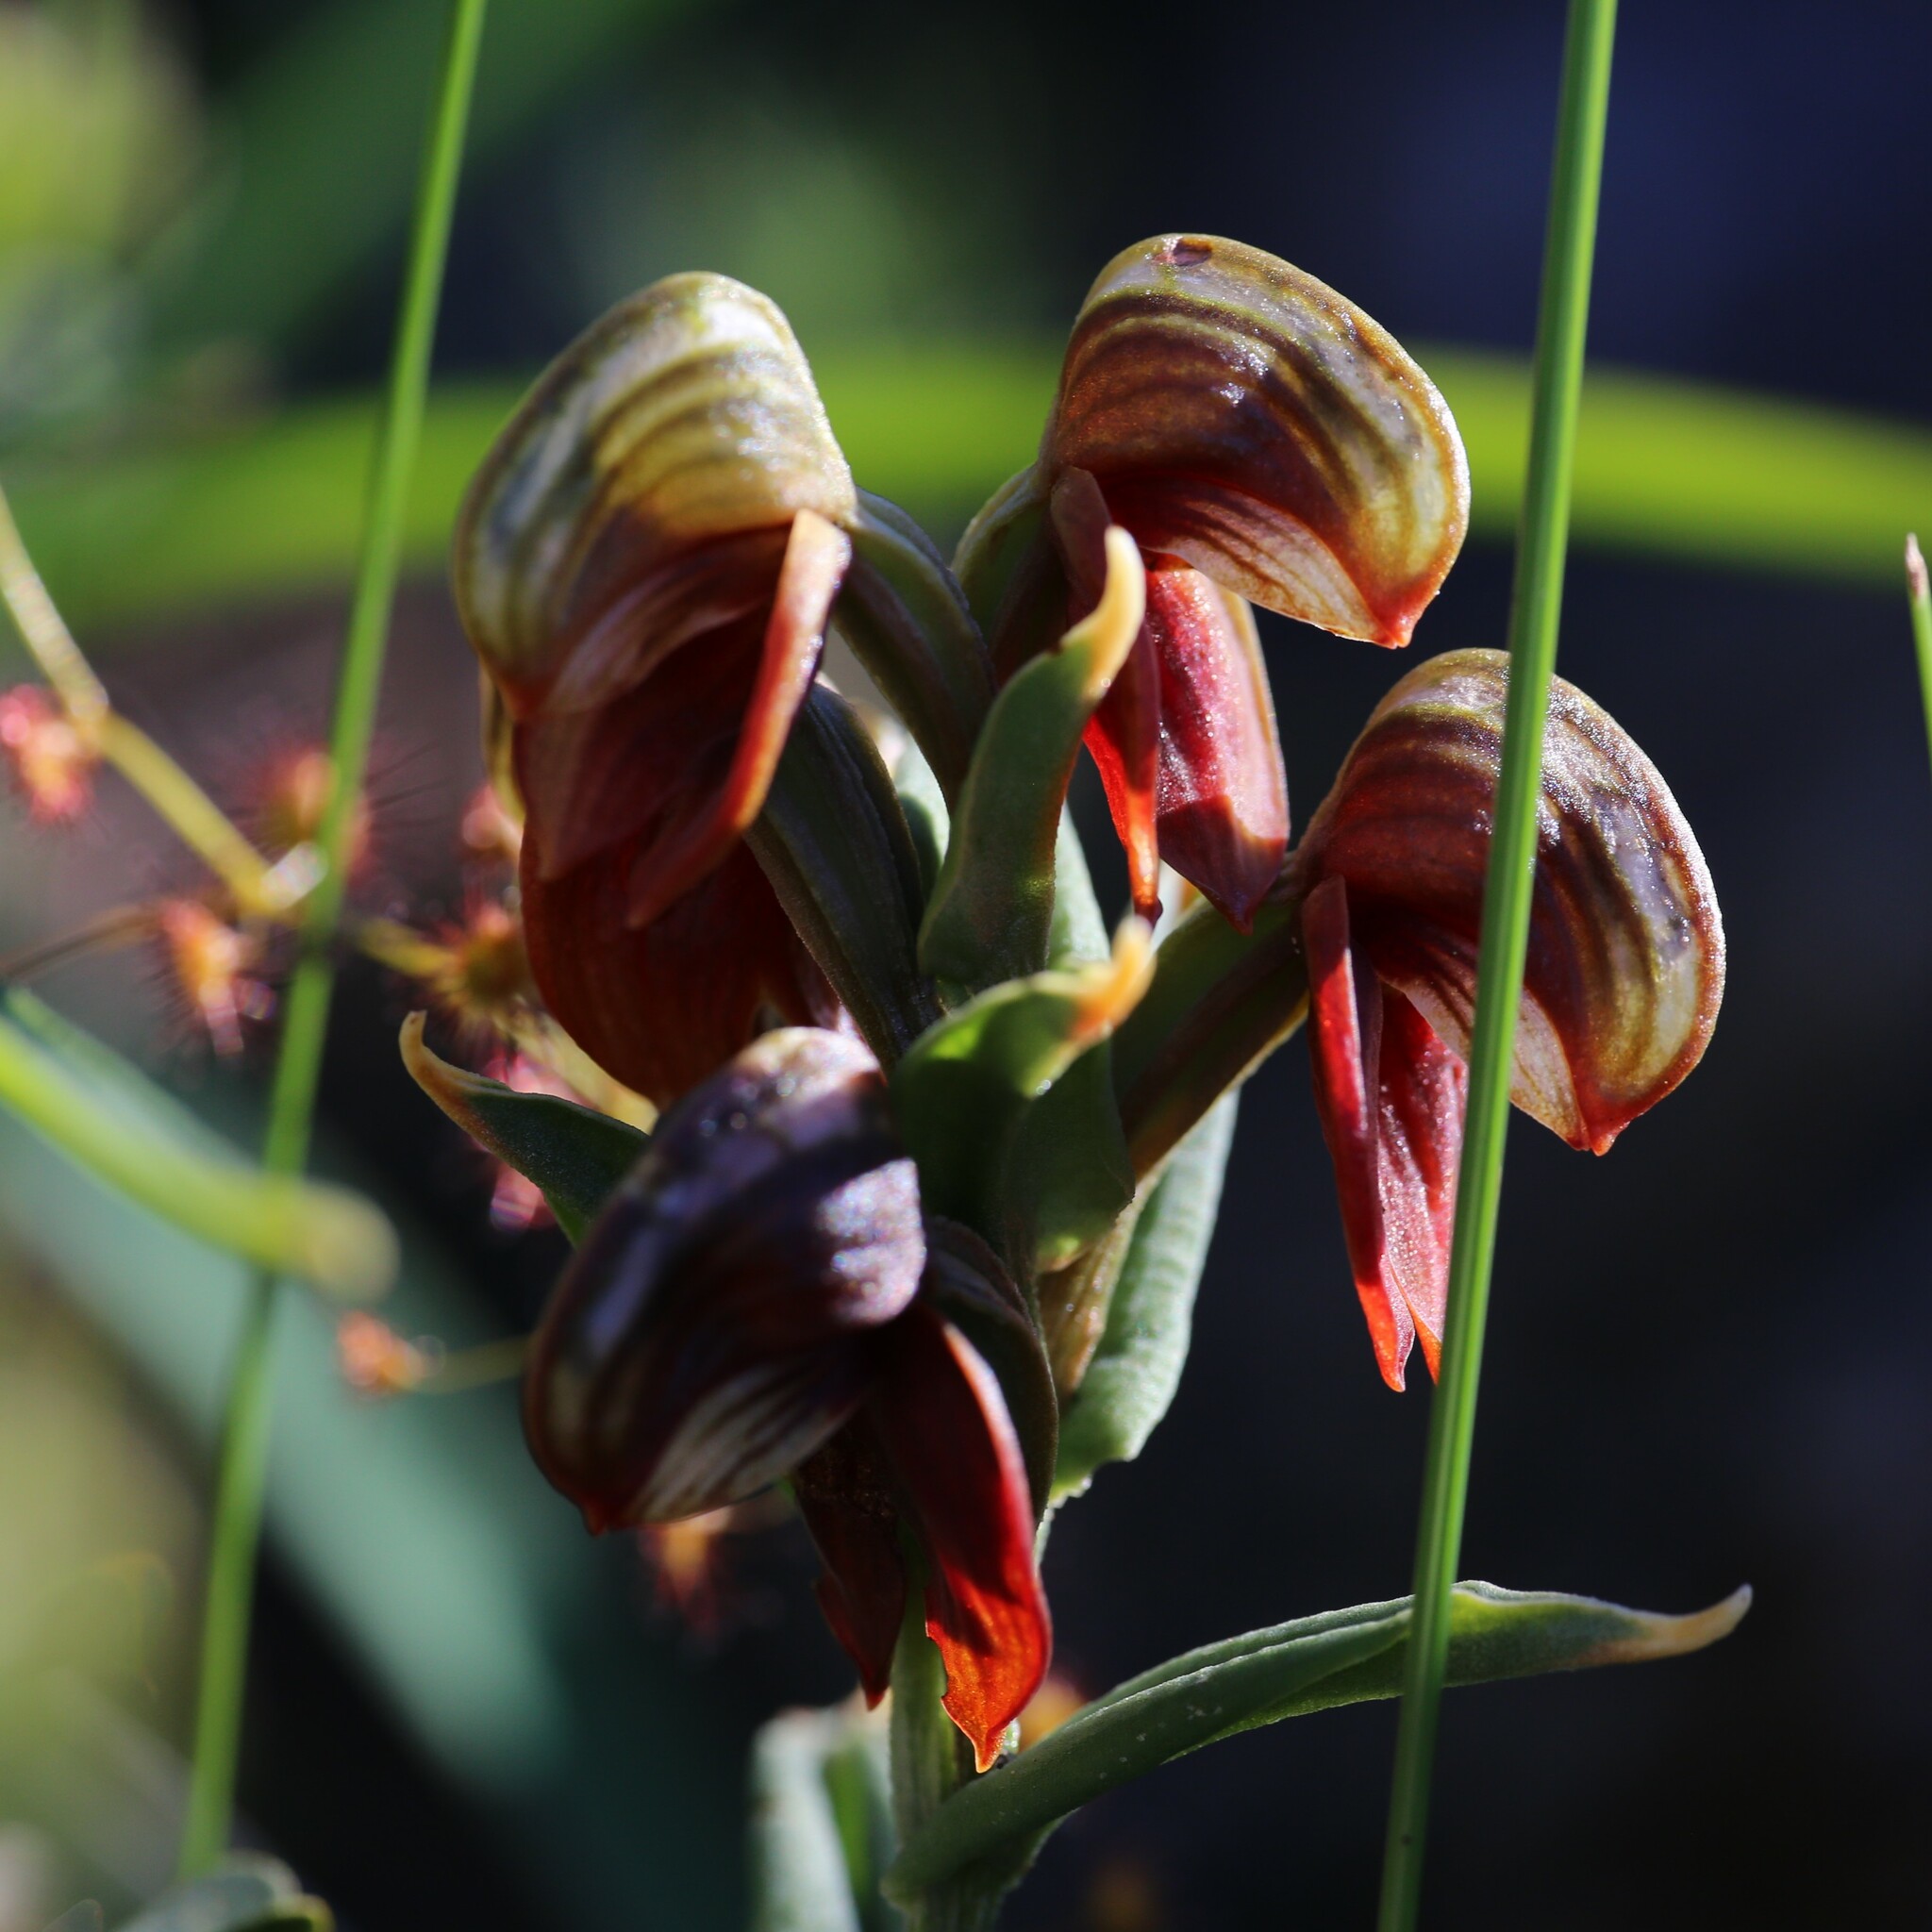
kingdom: Plantae
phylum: Tracheophyta
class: Liliopsida
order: Asparagales
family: Orchidaceae
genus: Pterostylis
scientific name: Pterostylis crebriflora
